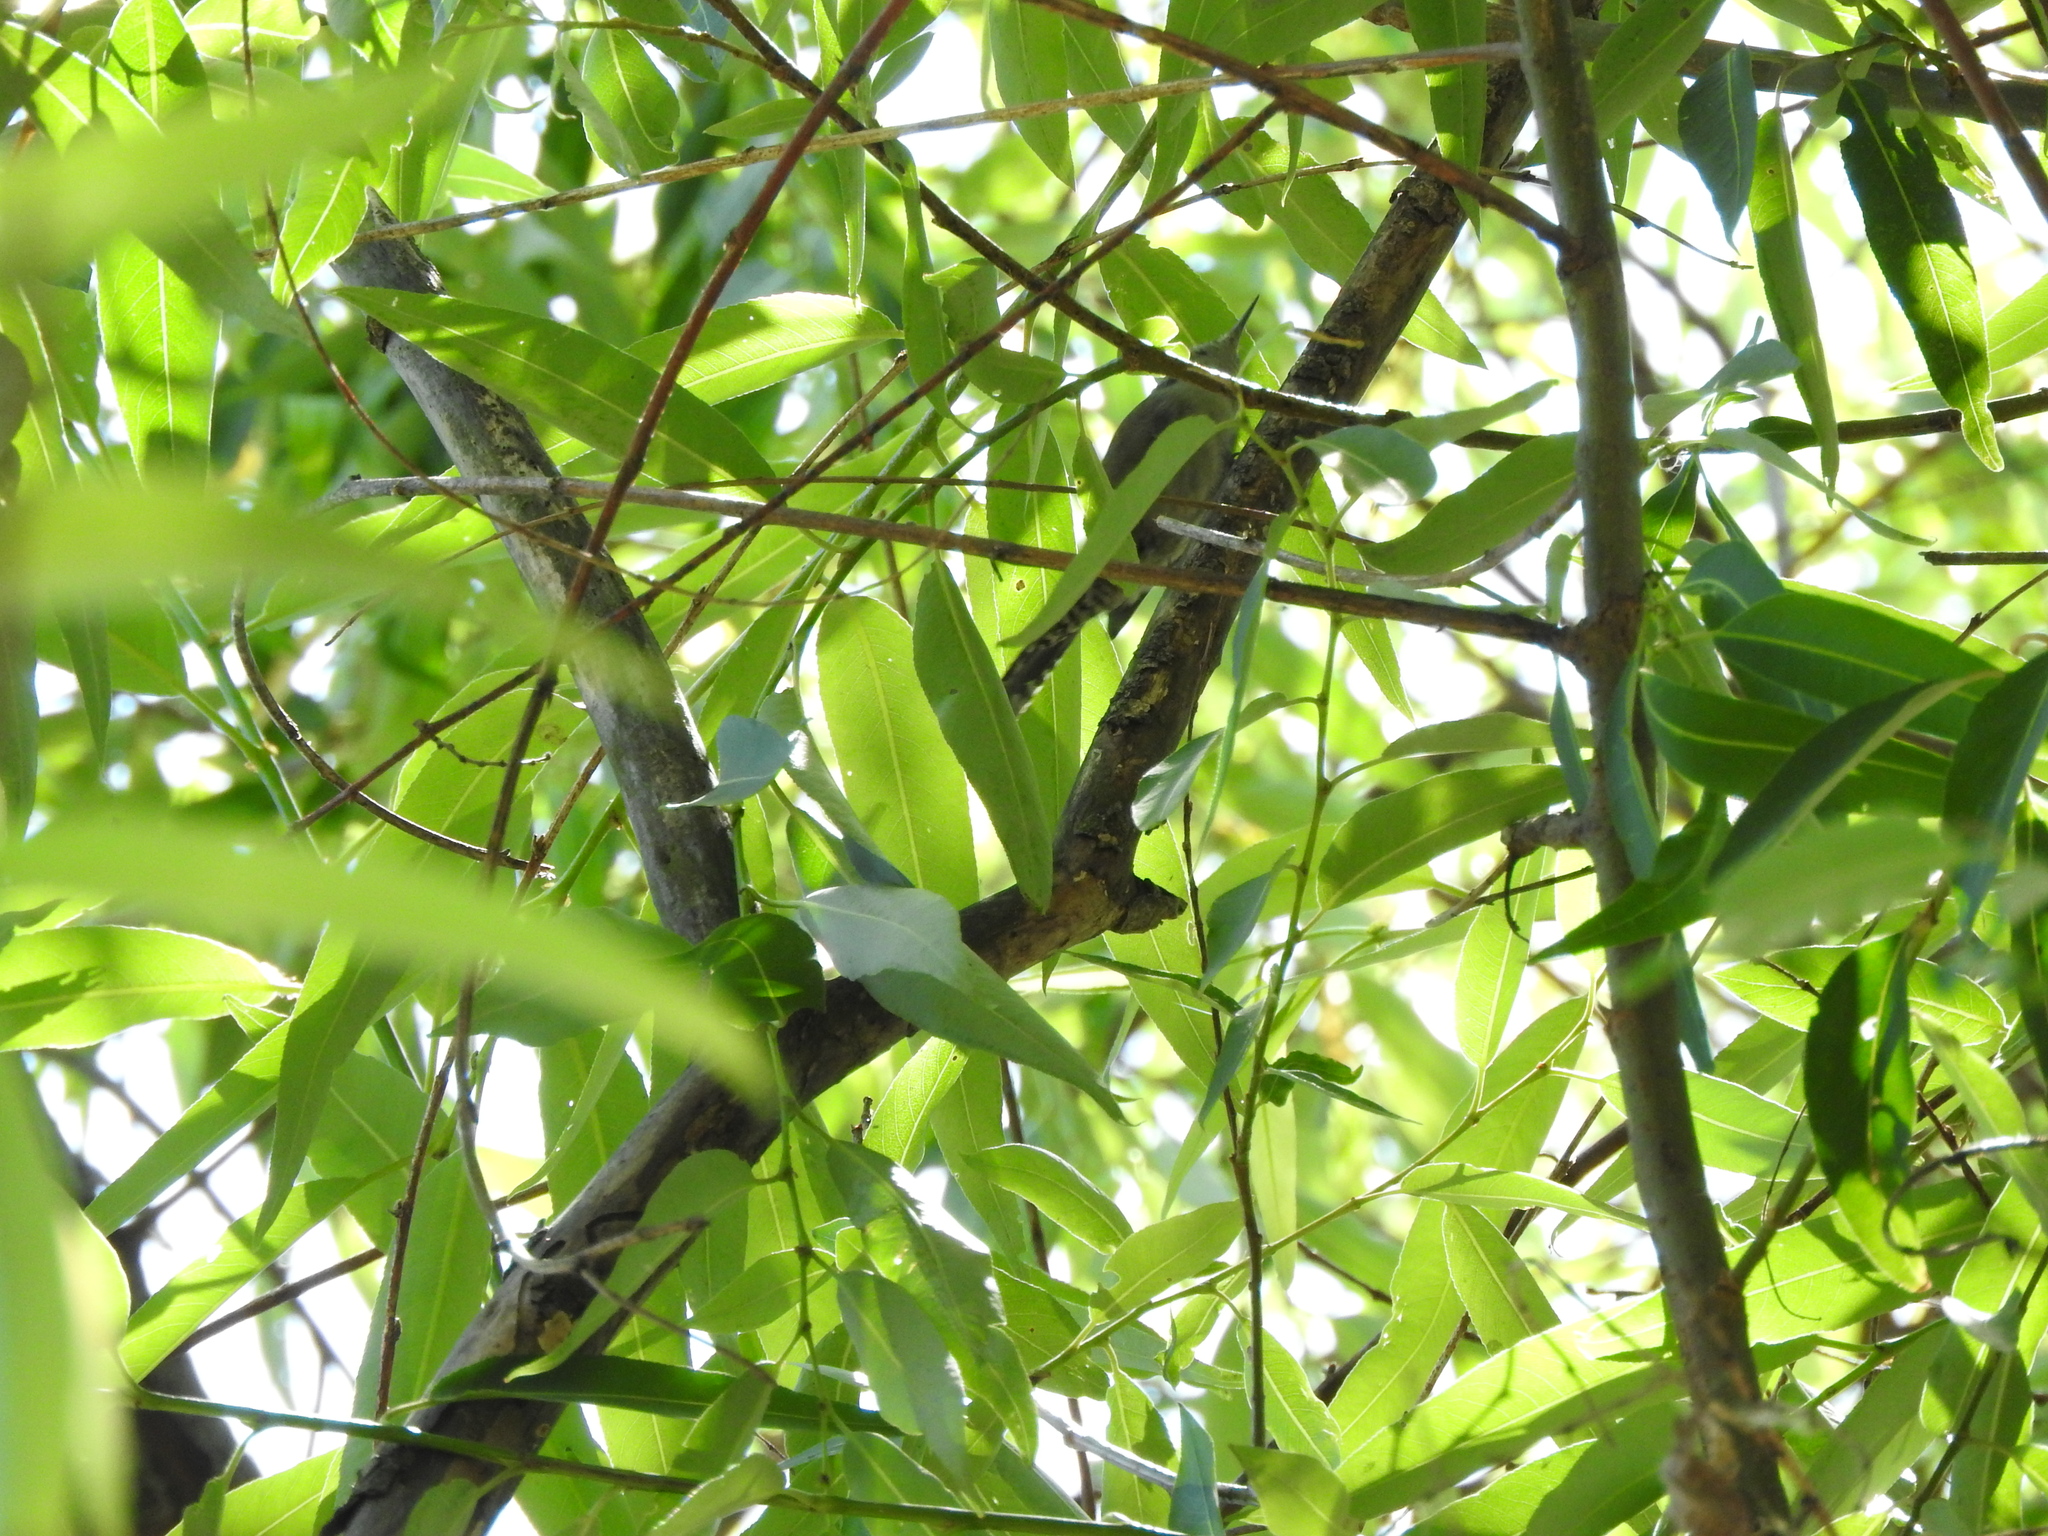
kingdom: Animalia
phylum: Chordata
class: Aves
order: Passeriformes
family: Troglodytidae
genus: Thryomanes
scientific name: Thryomanes bewickii
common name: Bewick's wren
